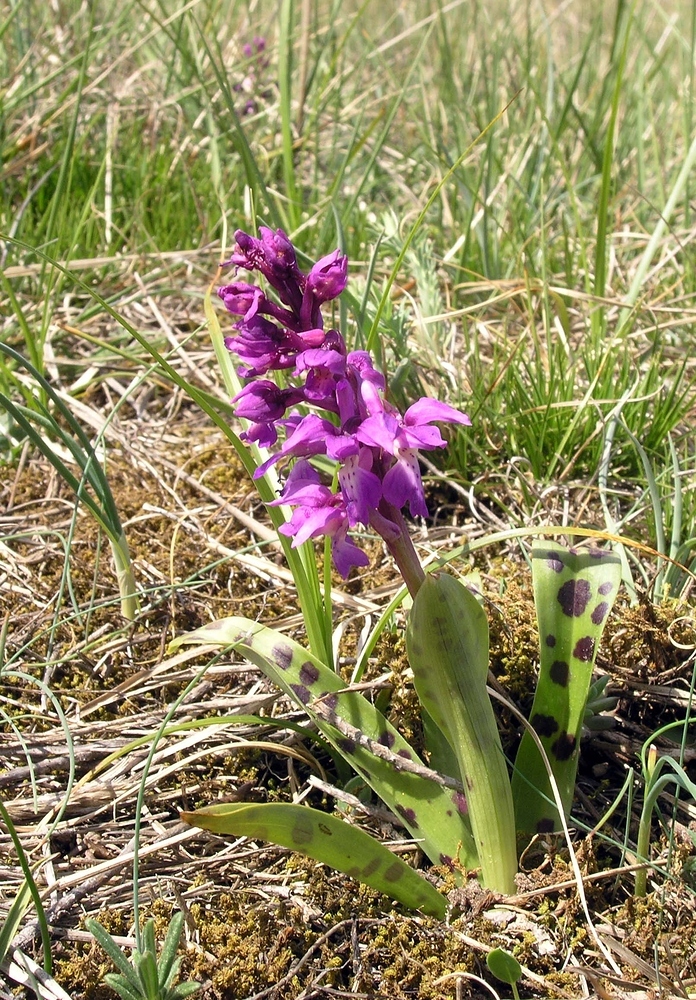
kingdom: Plantae
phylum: Tracheophyta
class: Liliopsida
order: Asparagales
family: Orchidaceae
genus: Orchis
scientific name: Orchis mascula
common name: Early-purple orchid
